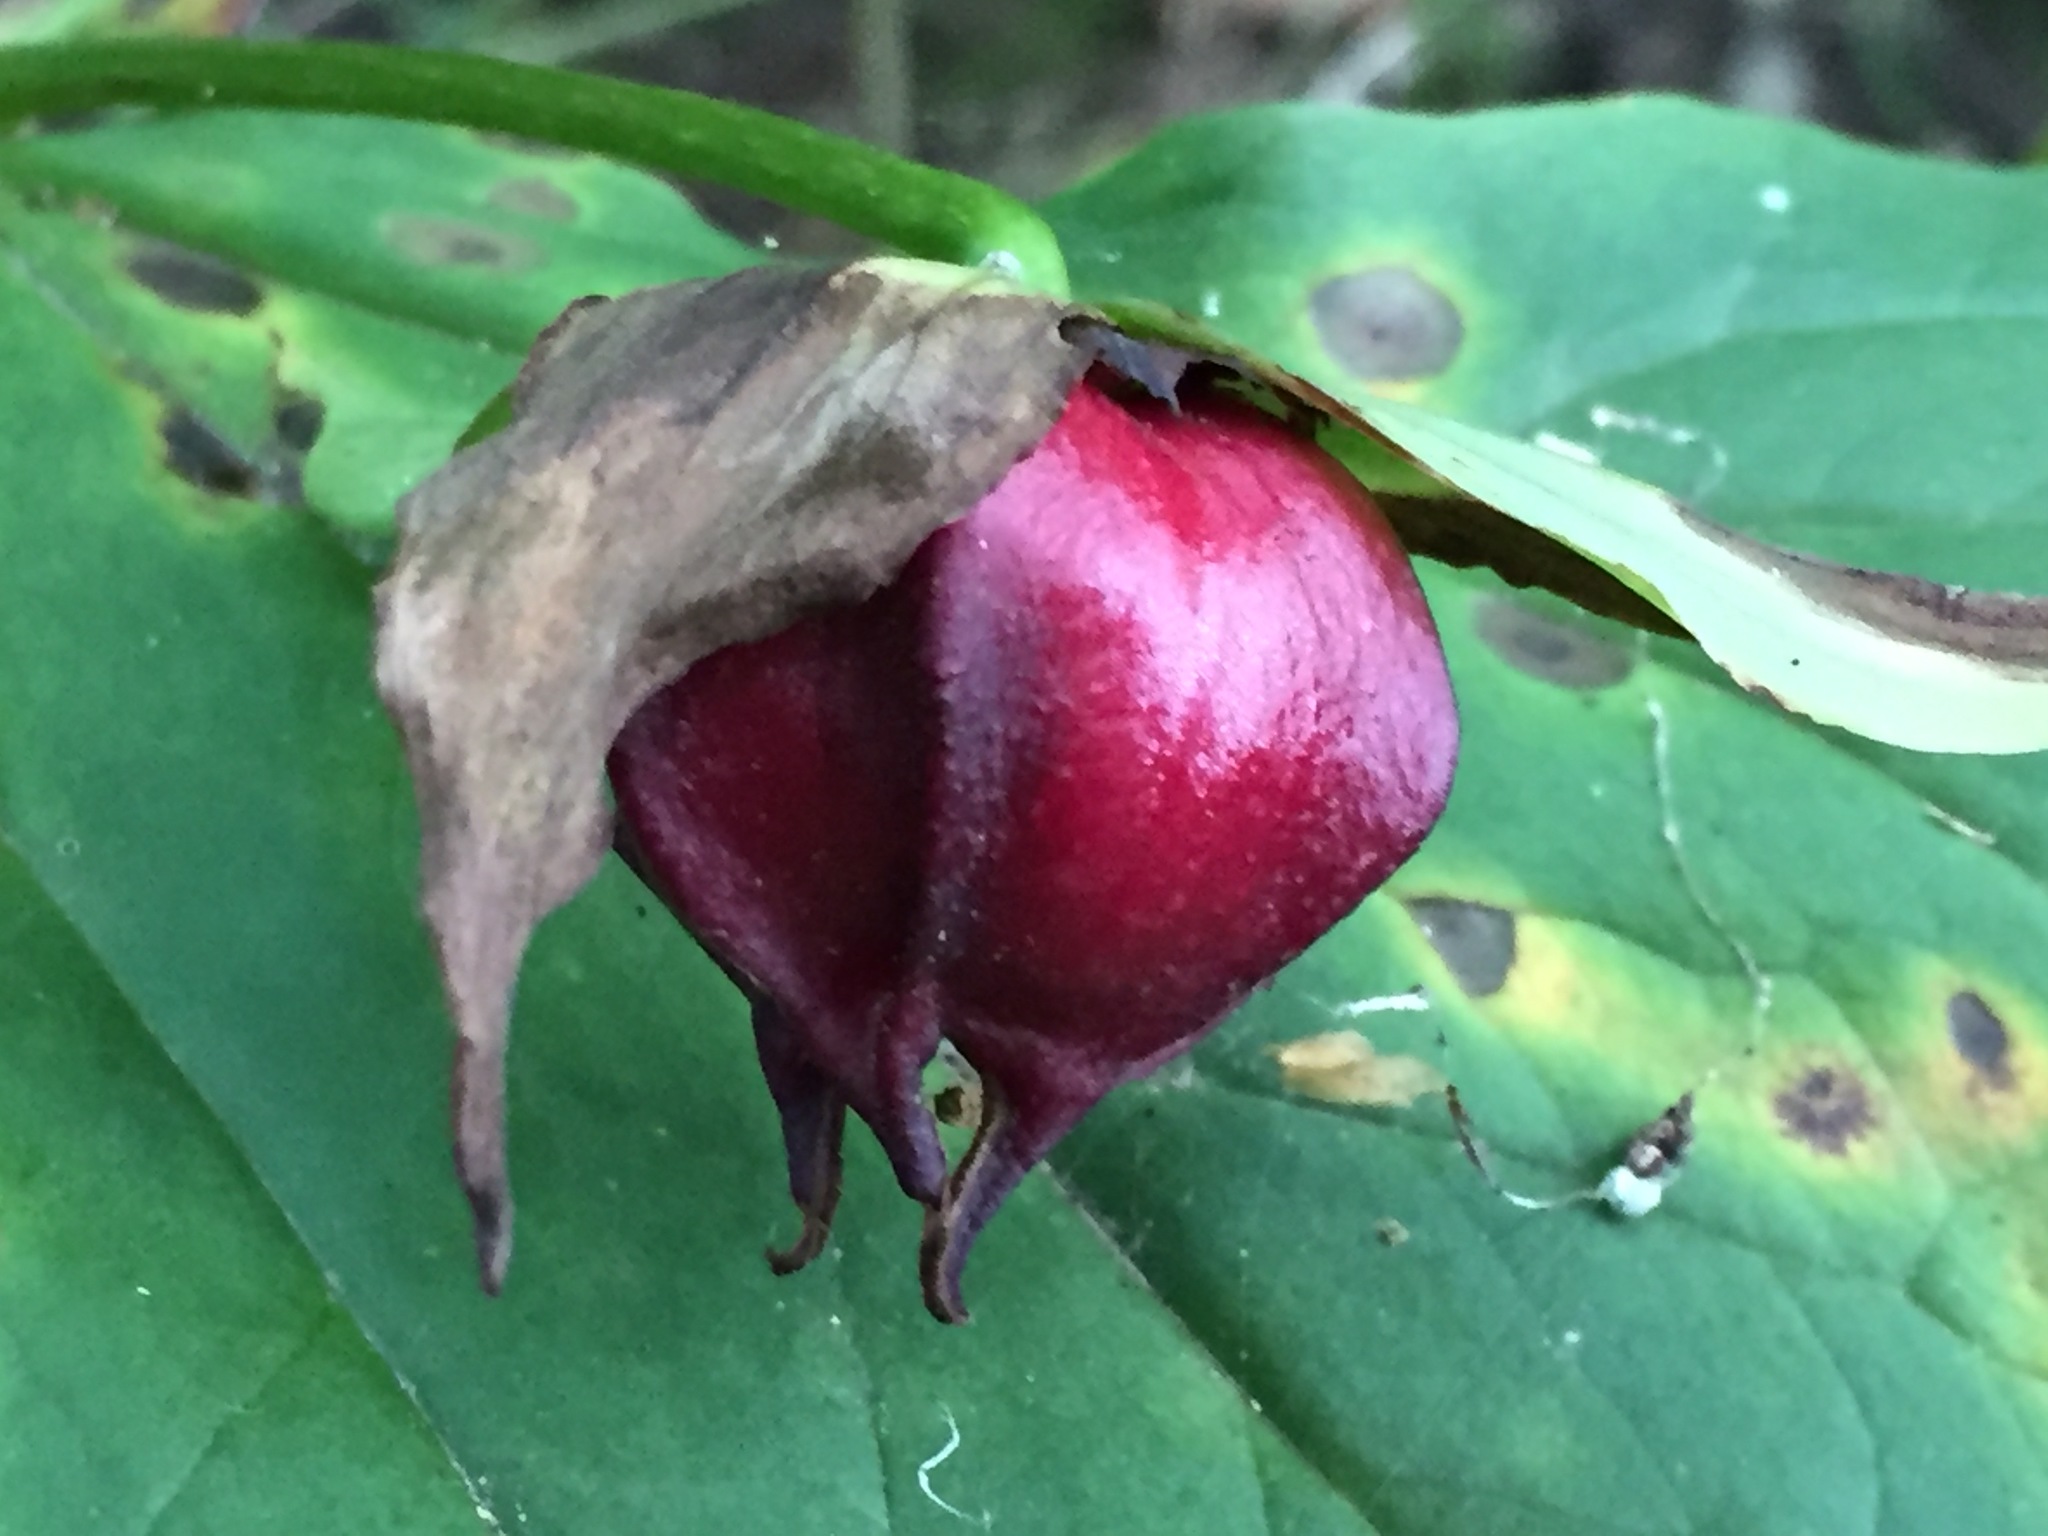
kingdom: Plantae
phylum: Tracheophyta
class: Liliopsida
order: Liliales
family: Melanthiaceae
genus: Trillium
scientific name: Trillium erectum
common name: Purple trillium
